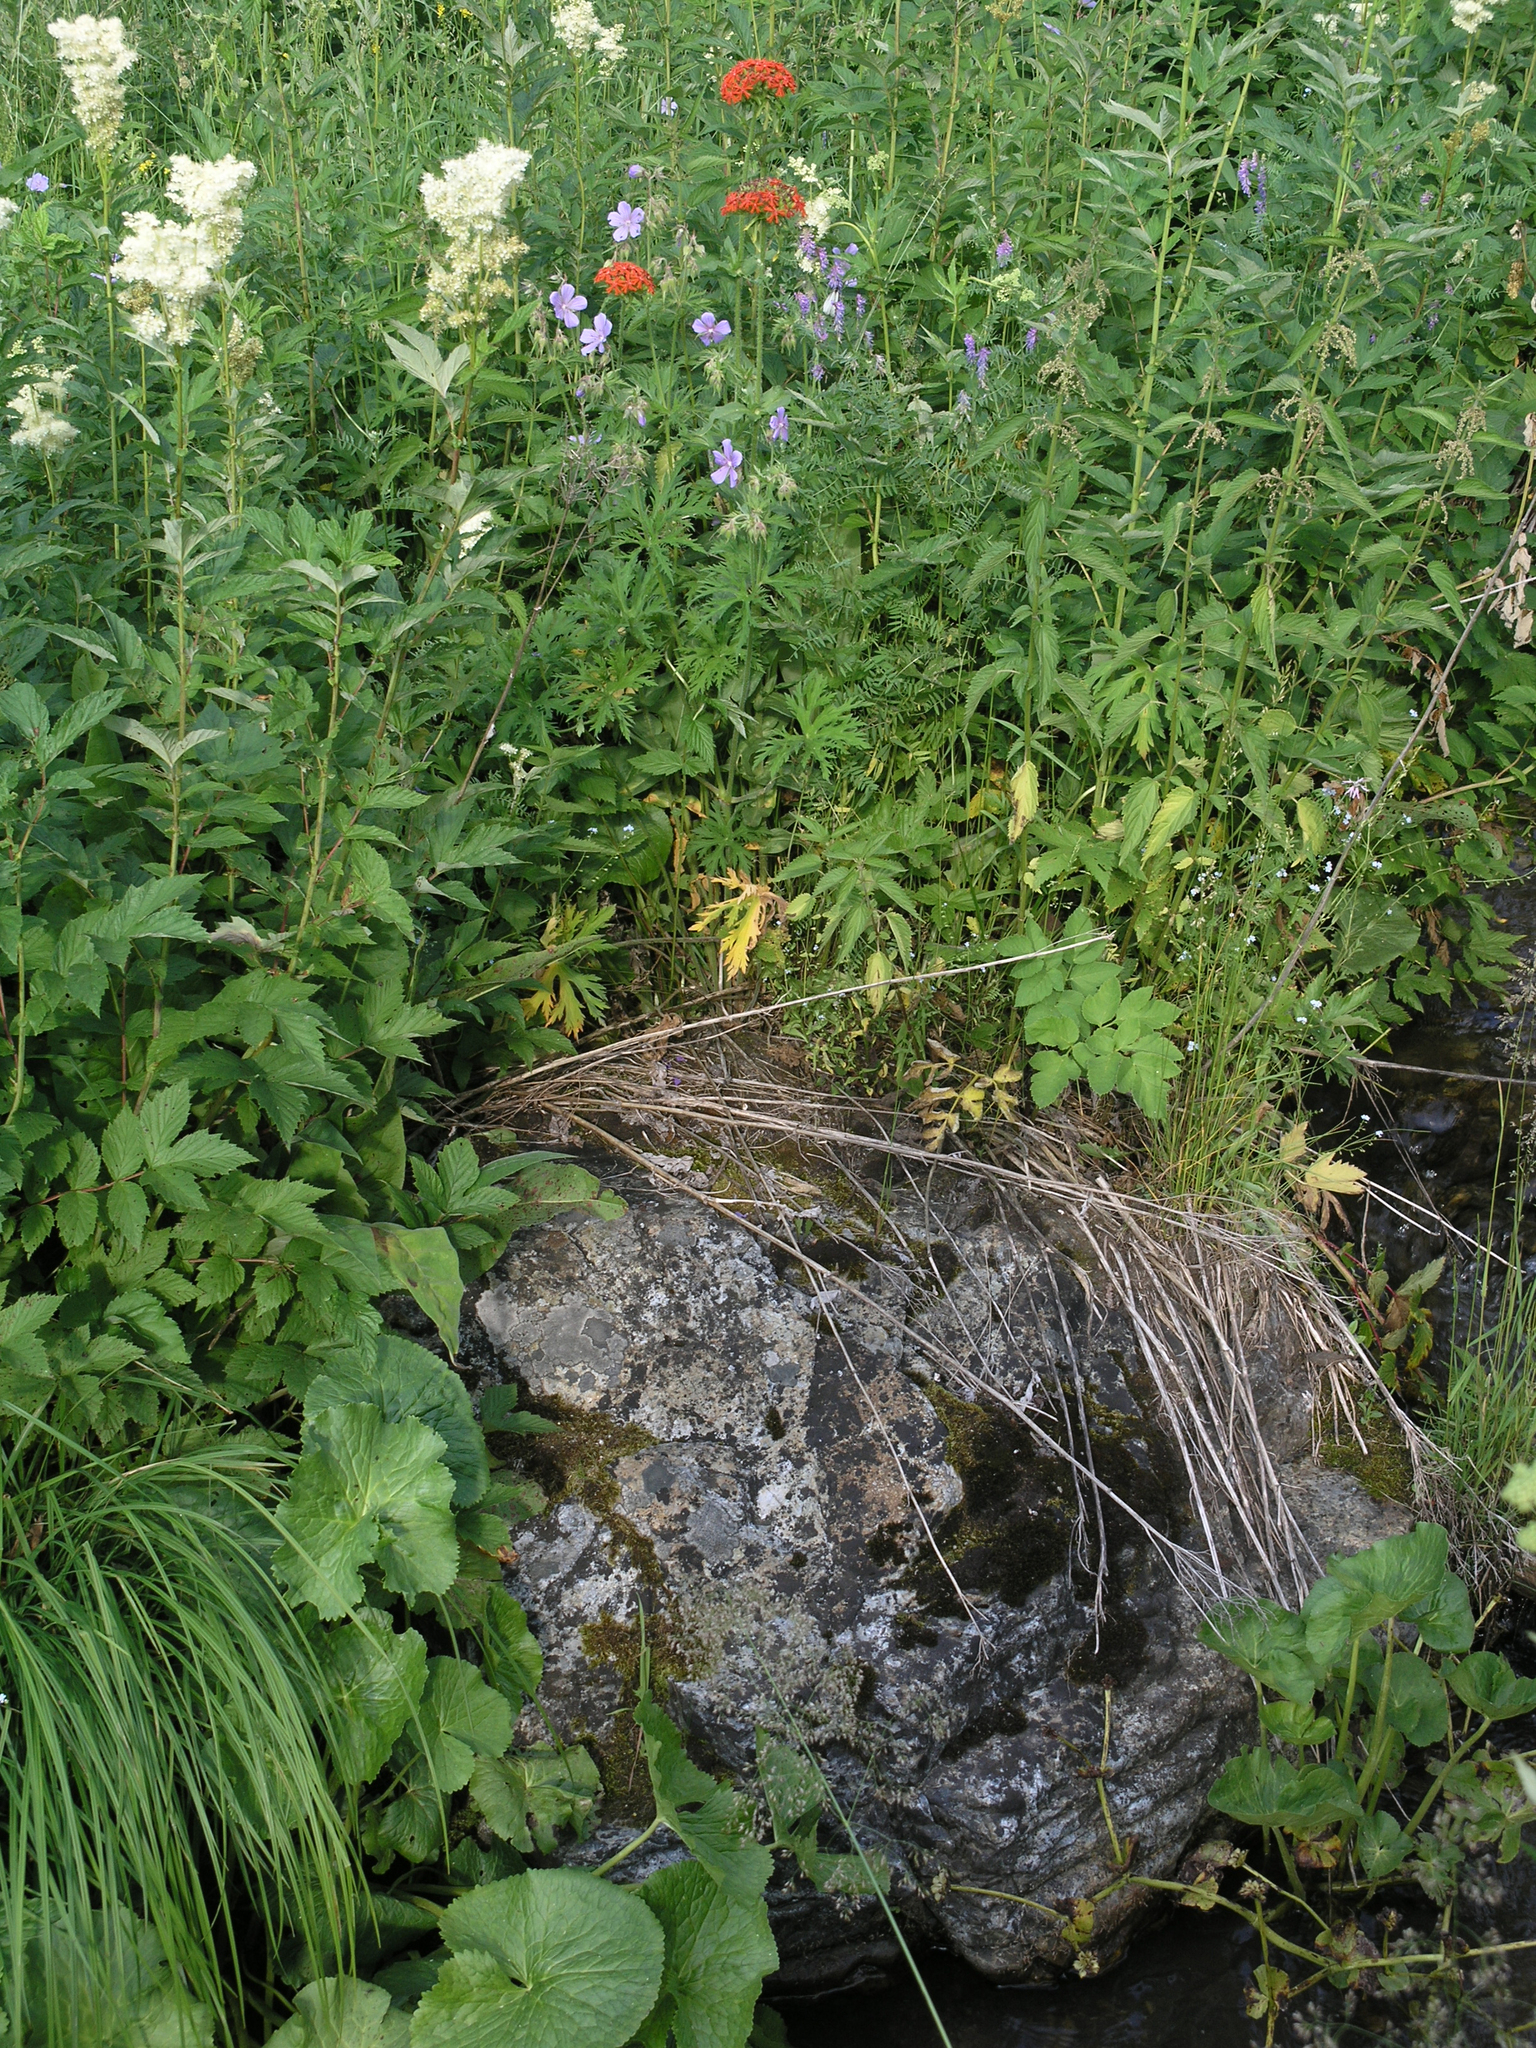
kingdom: Plantae
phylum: Tracheophyta
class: Magnoliopsida
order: Caryophyllales
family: Caryophyllaceae
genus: Silene
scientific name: Silene chalcedonica
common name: Maltese-cross
